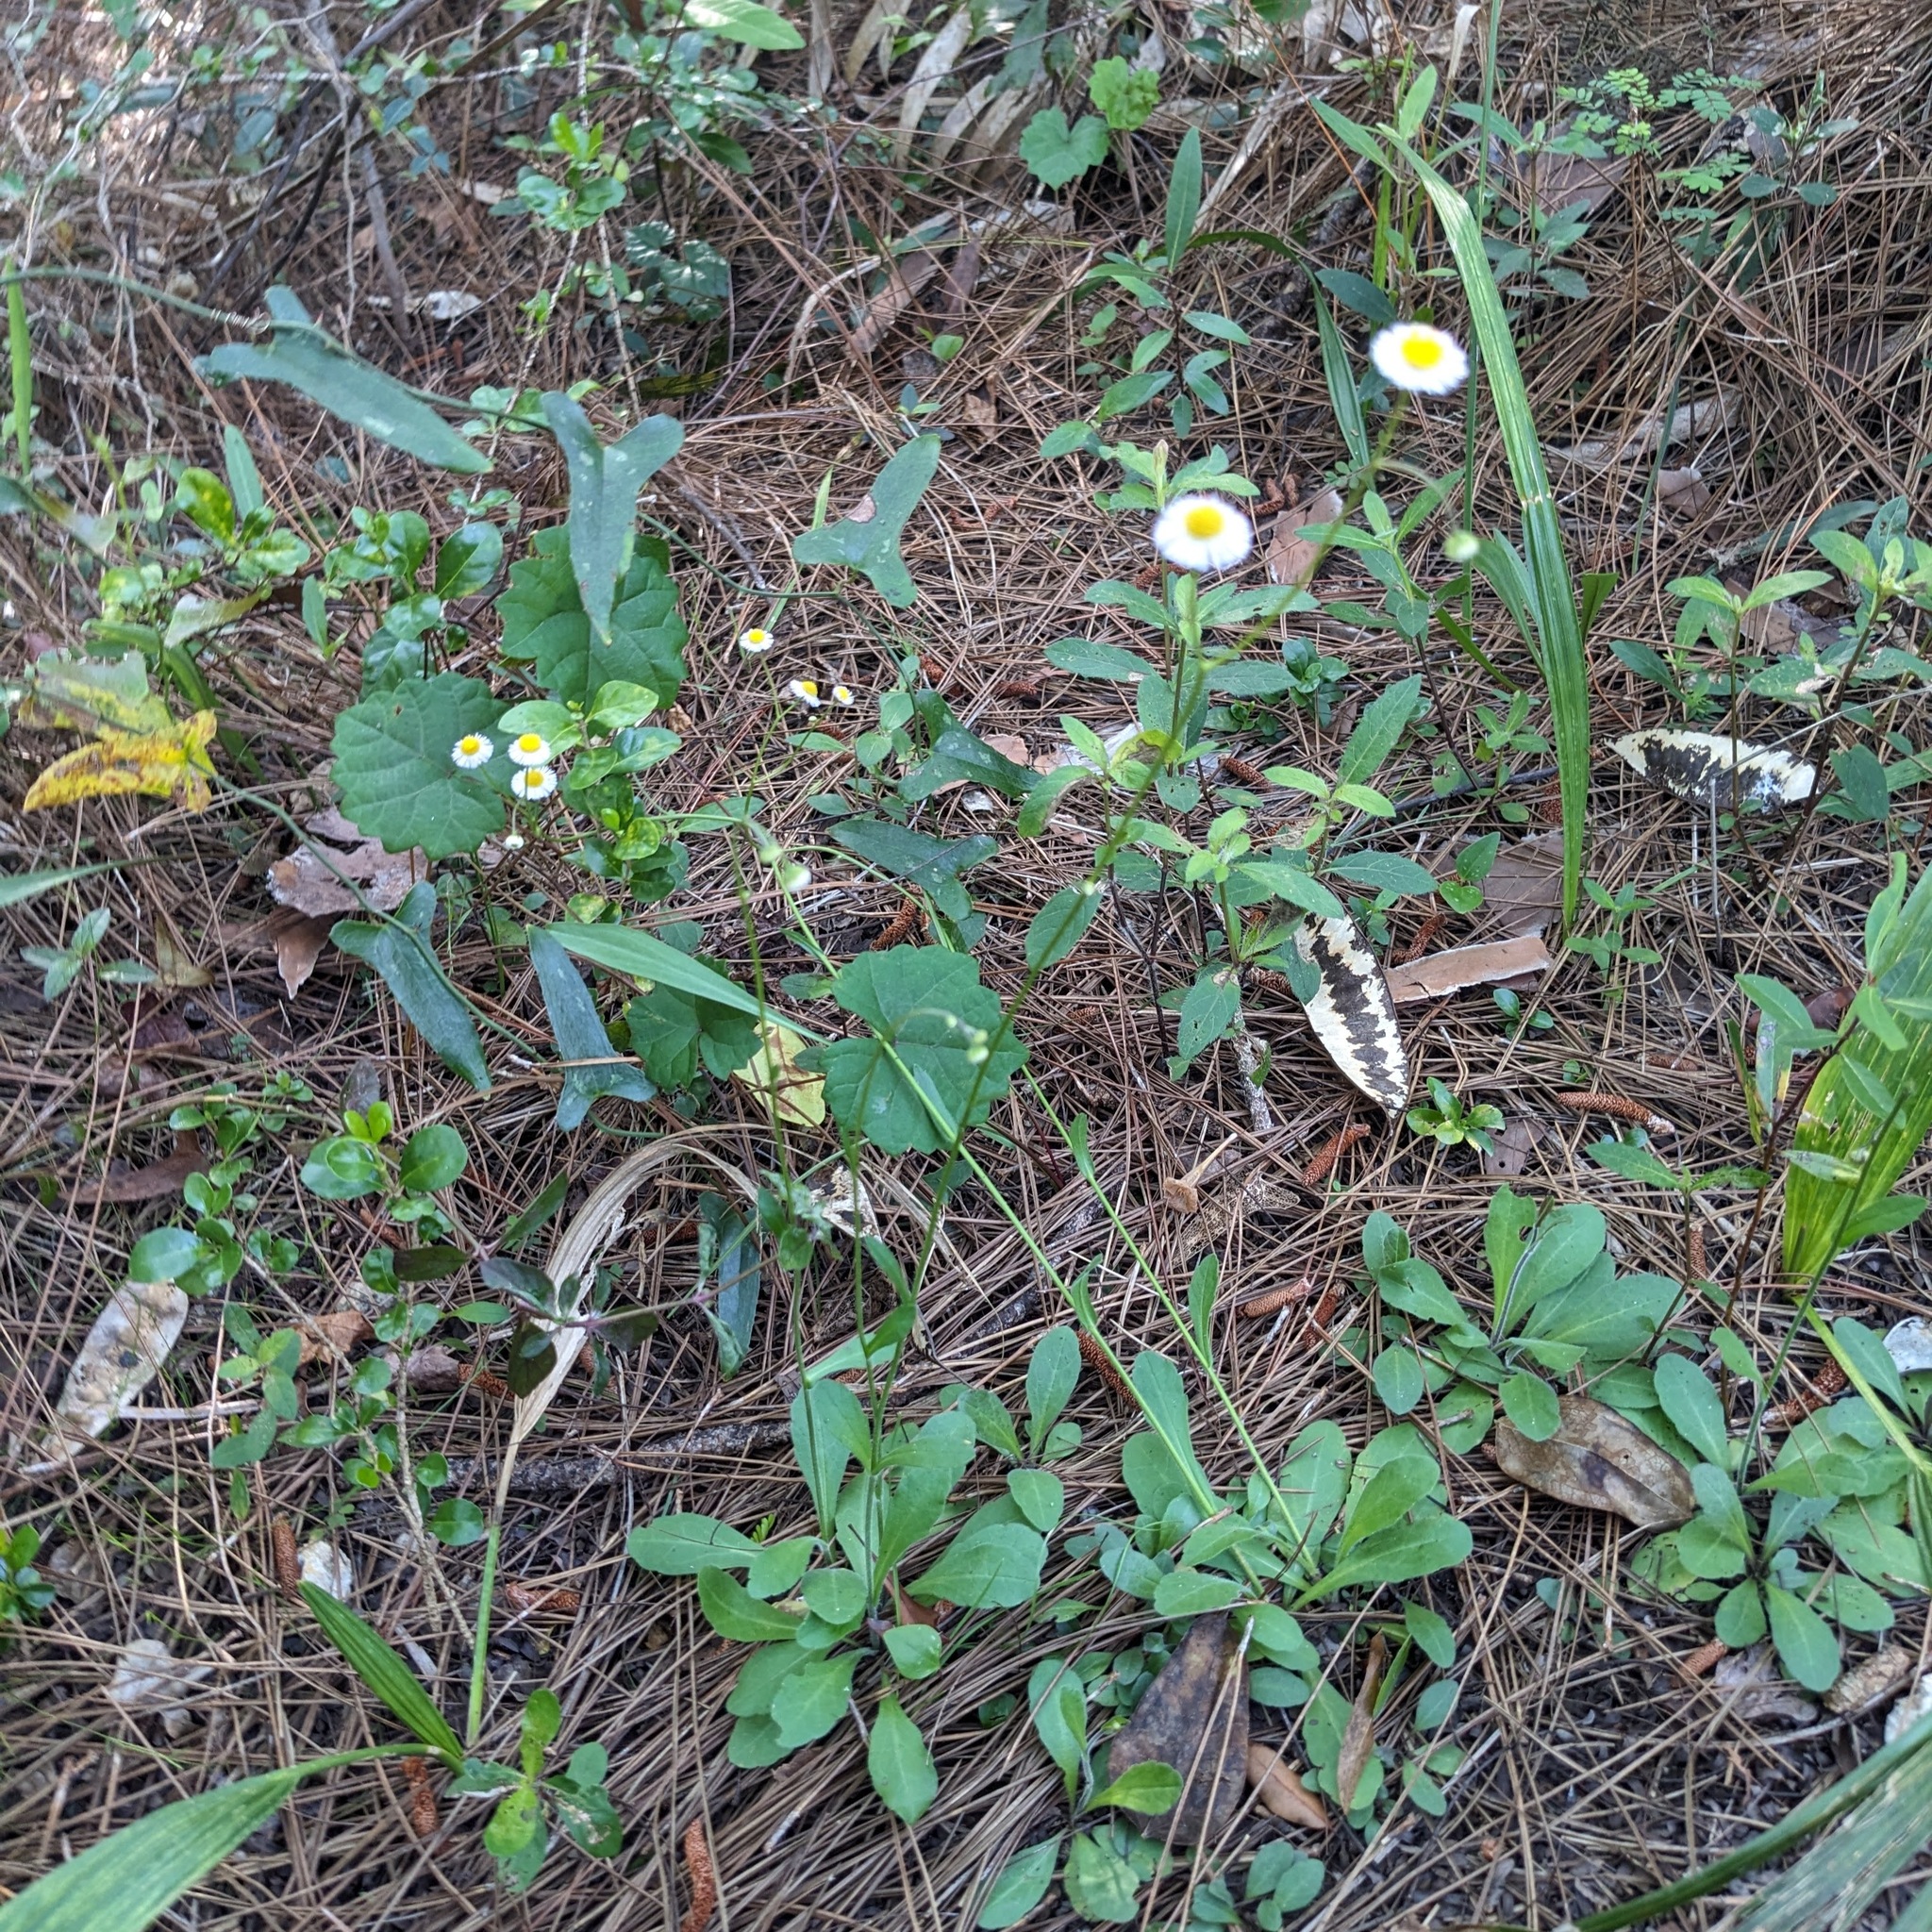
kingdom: Plantae
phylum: Tracheophyta
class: Magnoliopsida
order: Asterales
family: Asteraceae
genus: Erigeron
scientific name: Erigeron quercifolius
